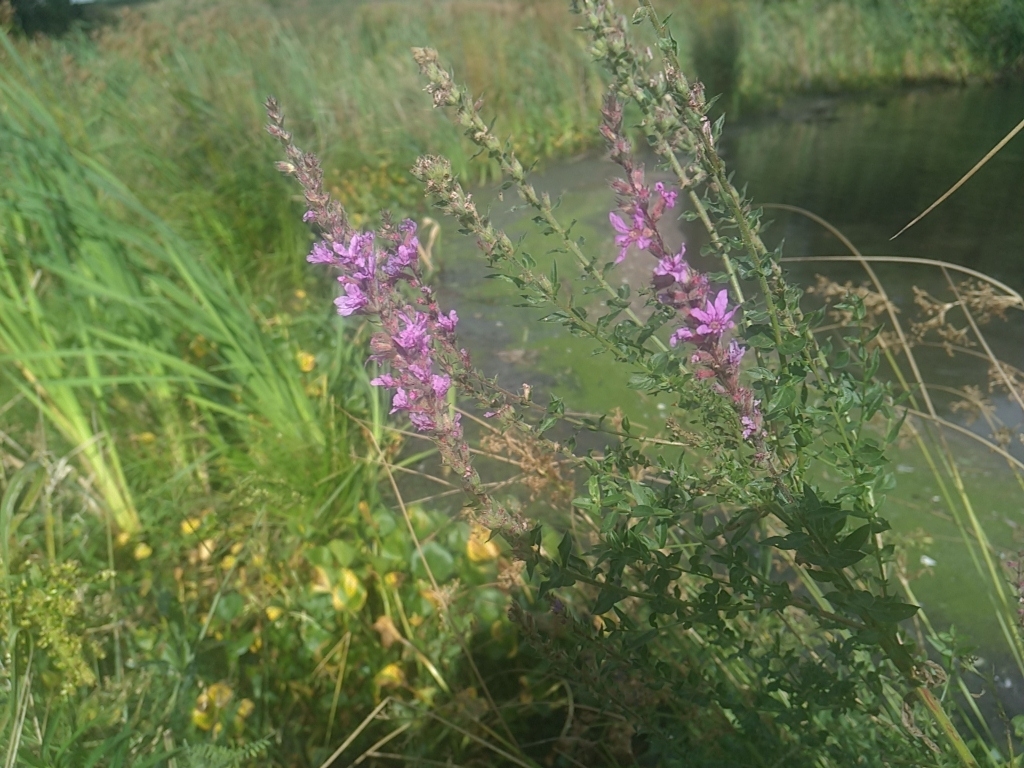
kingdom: Plantae
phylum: Tracheophyta
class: Magnoliopsida
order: Myrtales
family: Lythraceae
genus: Lythrum
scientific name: Lythrum salicaria
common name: Purple loosestrife
